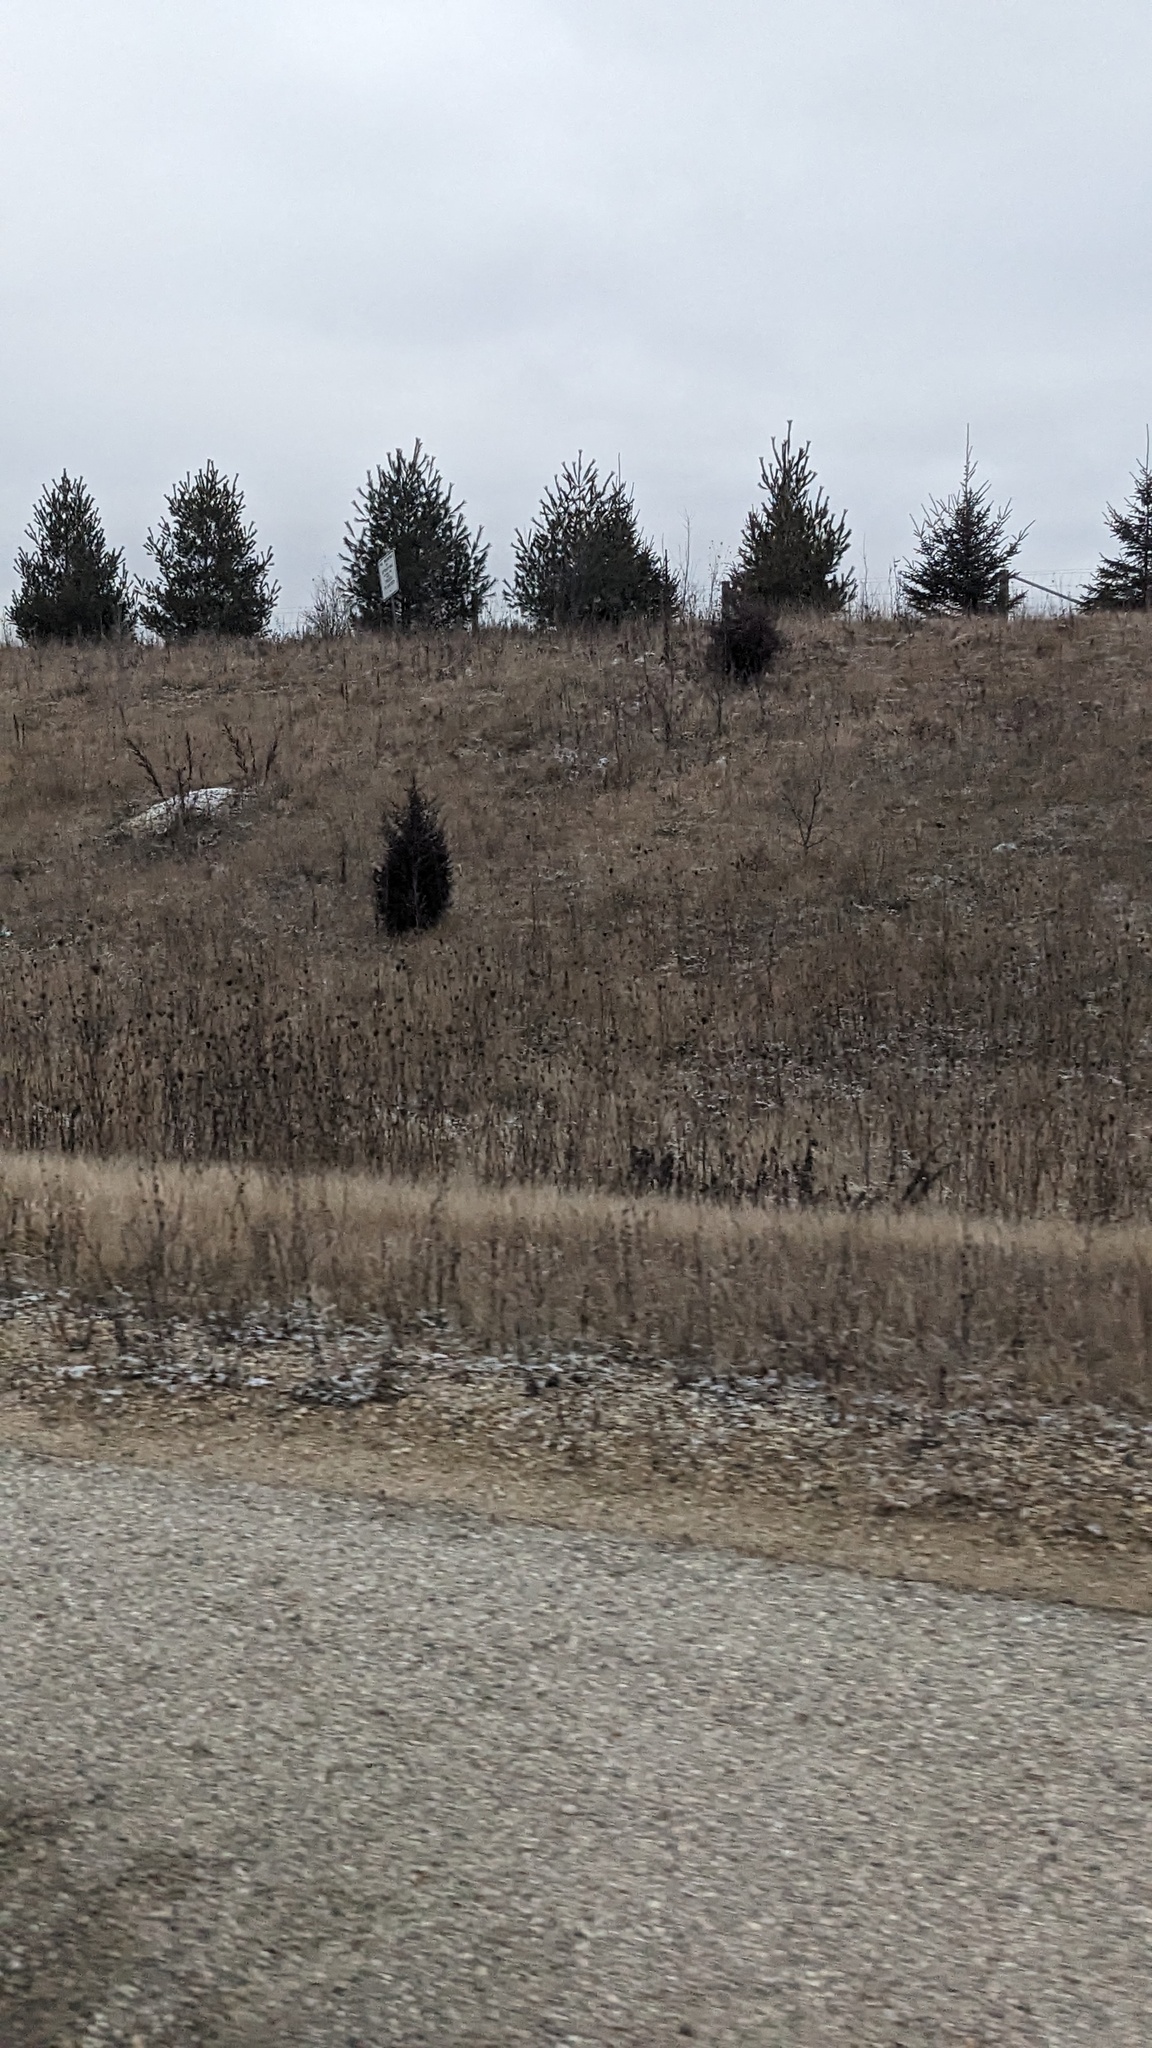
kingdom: Plantae
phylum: Tracheophyta
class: Pinopsida
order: Pinales
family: Cupressaceae
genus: Juniperus
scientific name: Juniperus virginiana
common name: Red juniper
